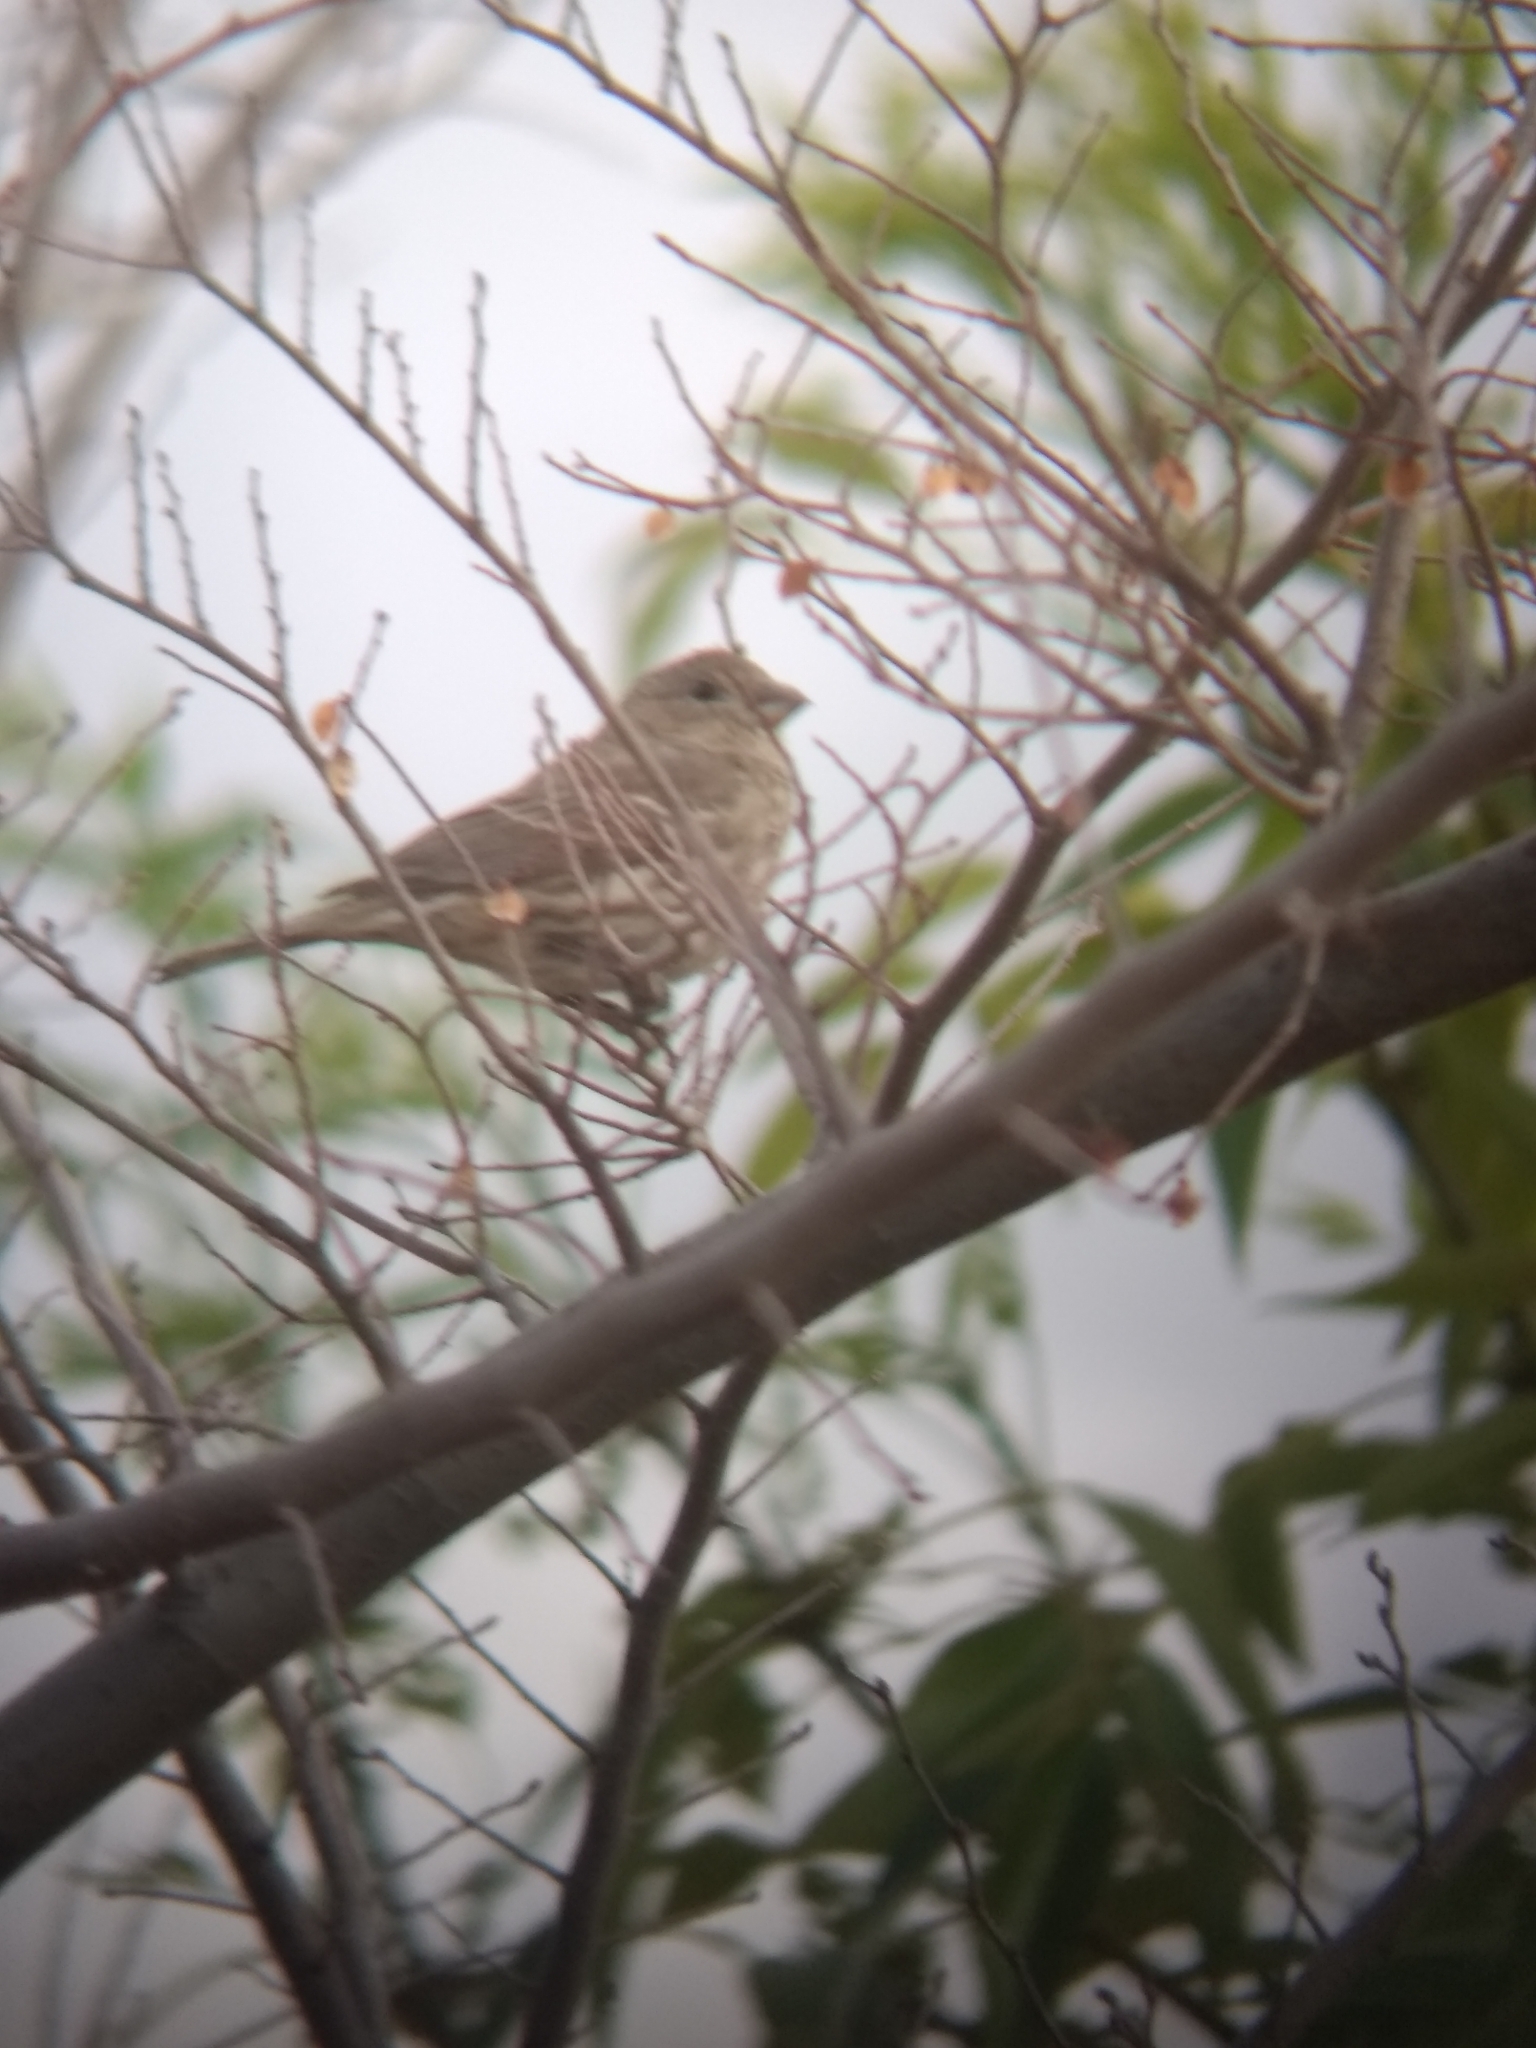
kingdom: Animalia
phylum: Chordata
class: Aves
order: Passeriformes
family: Fringillidae
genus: Haemorhous
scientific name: Haemorhous mexicanus
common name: House finch
